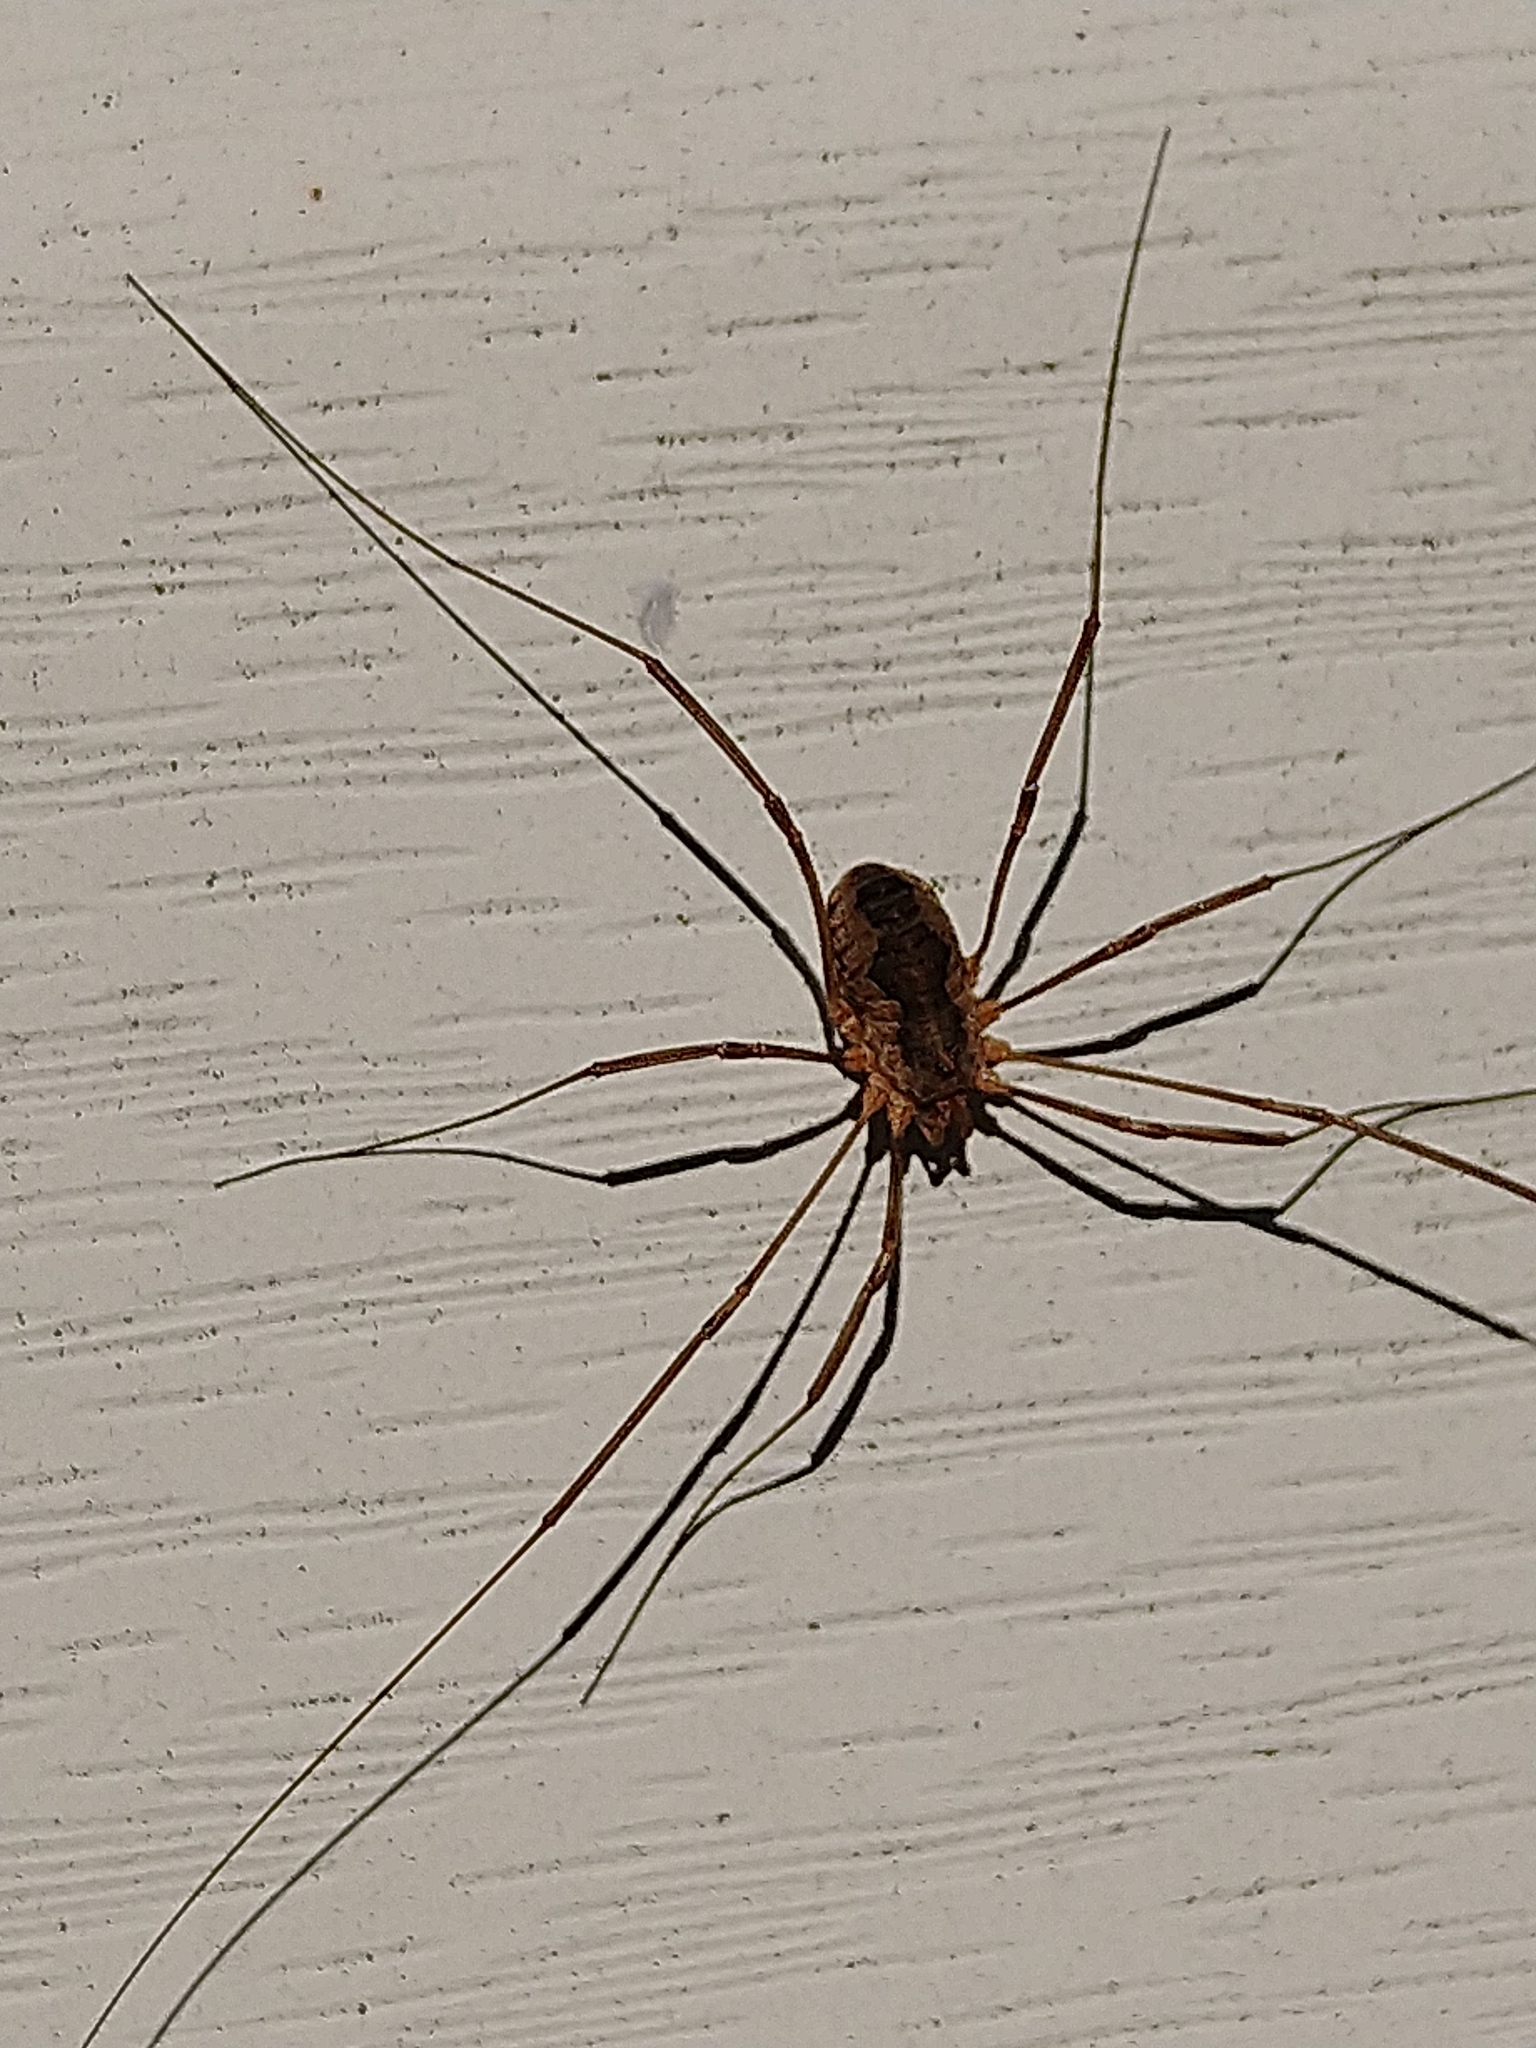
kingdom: Animalia
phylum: Arthropoda
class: Arachnida
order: Opiliones
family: Phalangiidae
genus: Phalangium
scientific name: Phalangium opilio
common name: Daddy longleg
